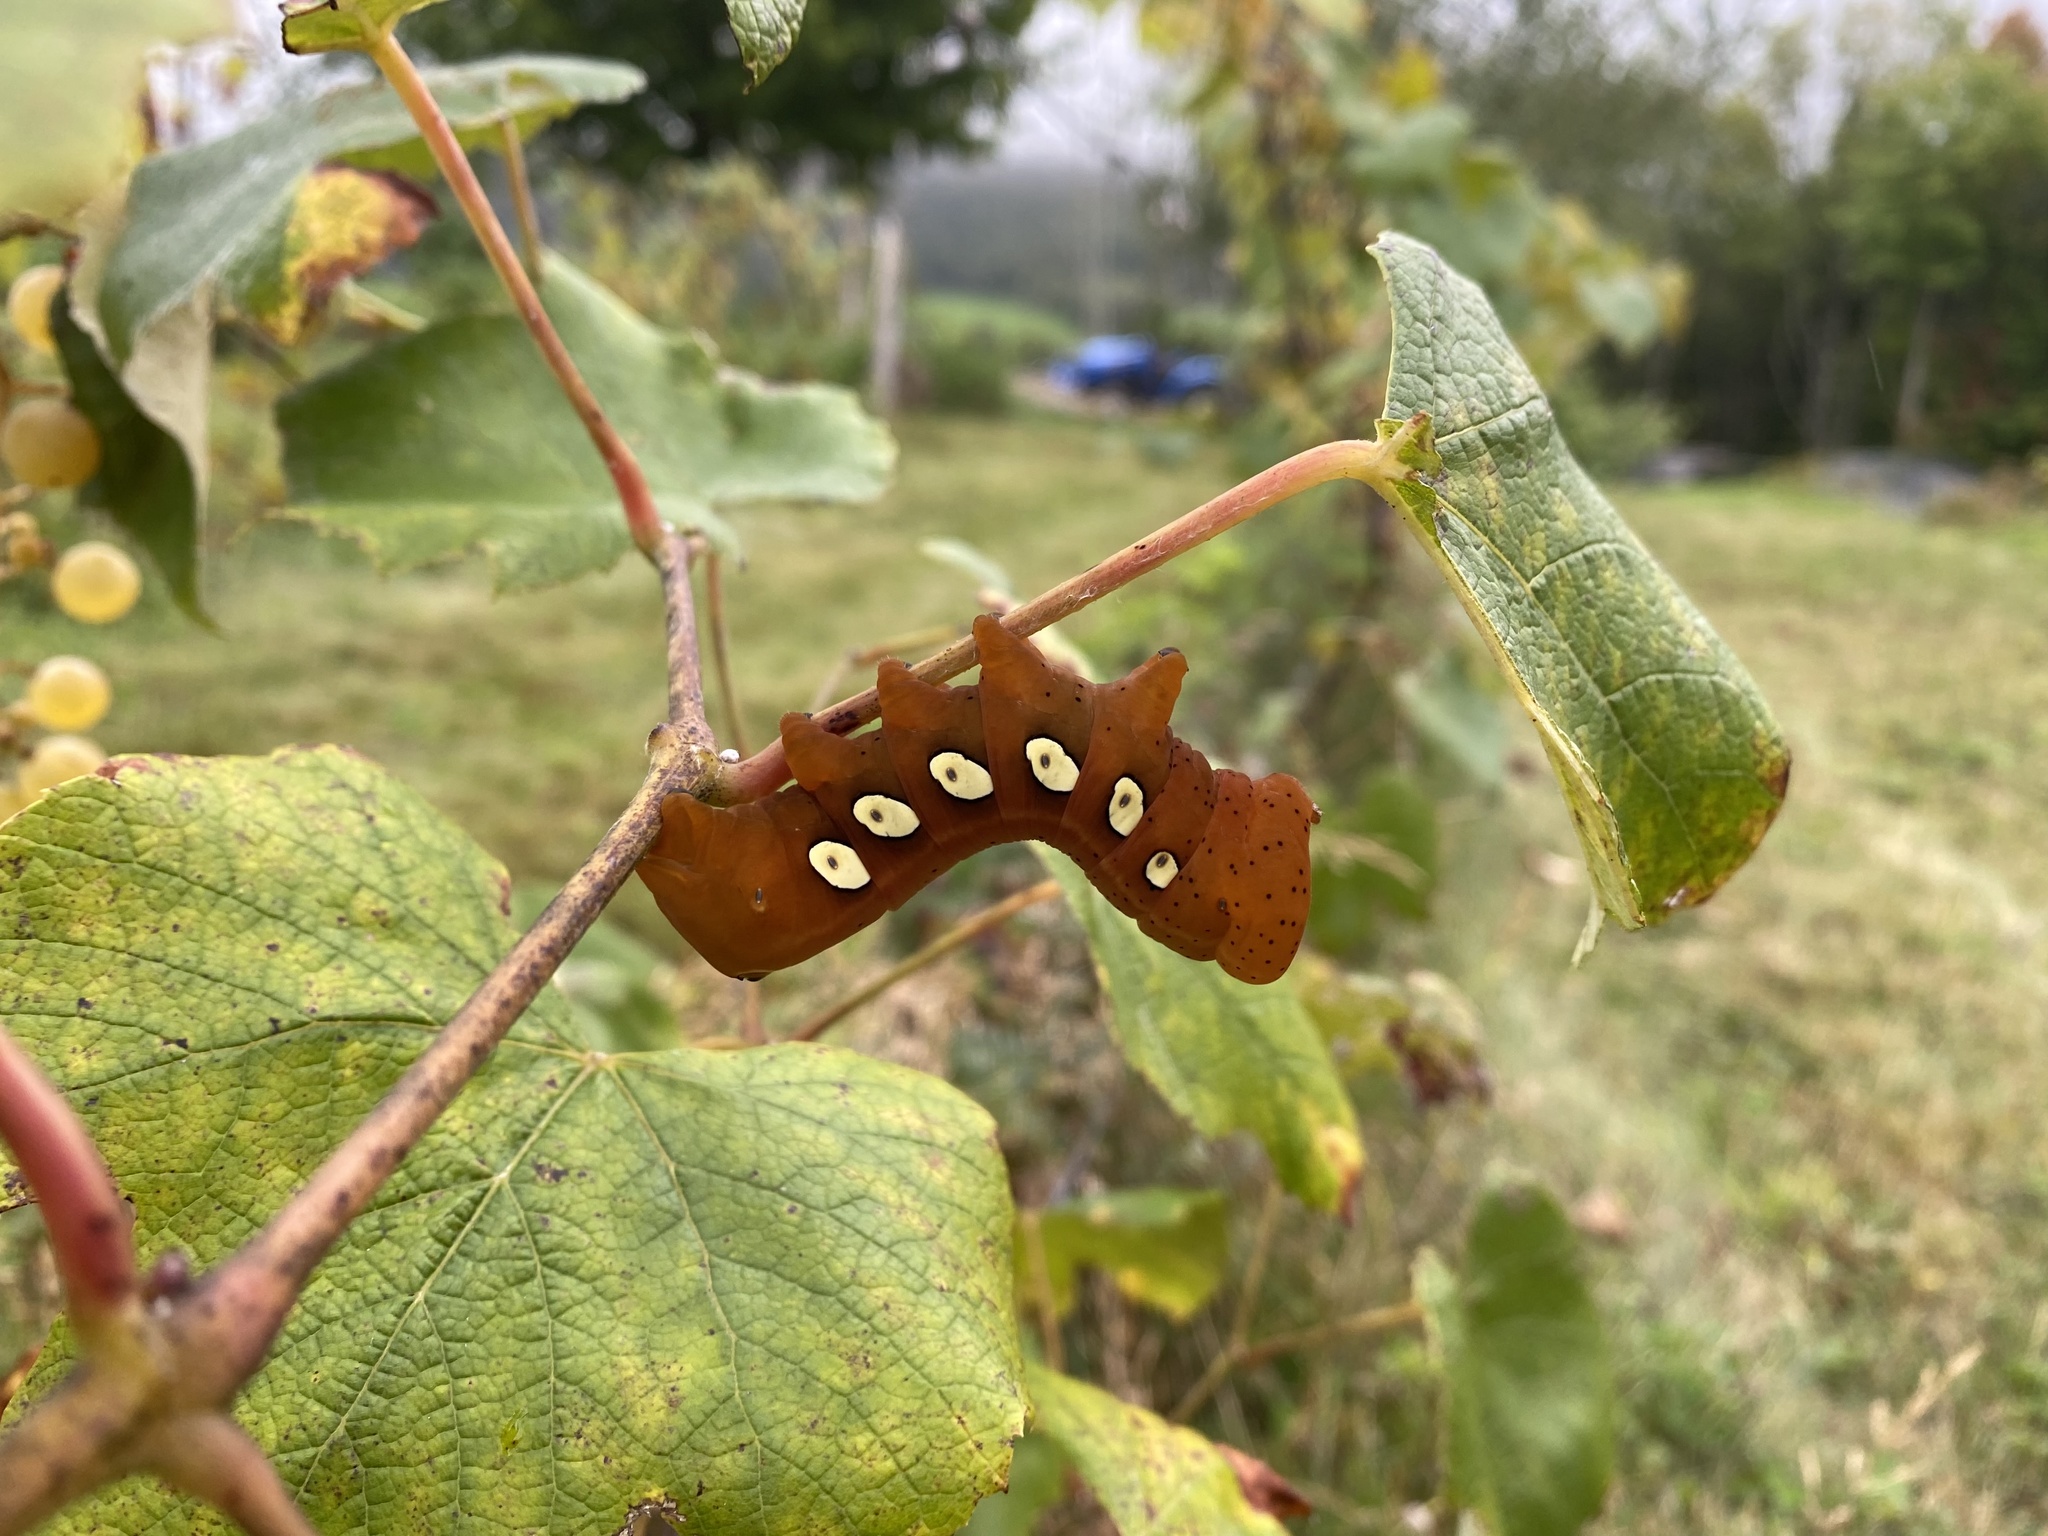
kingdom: Animalia
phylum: Arthropoda
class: Insecta
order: Lepidoptera
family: Sphingidae
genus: Eumorpha
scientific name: Eumorpha pandorus
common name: Pandora sphinx
